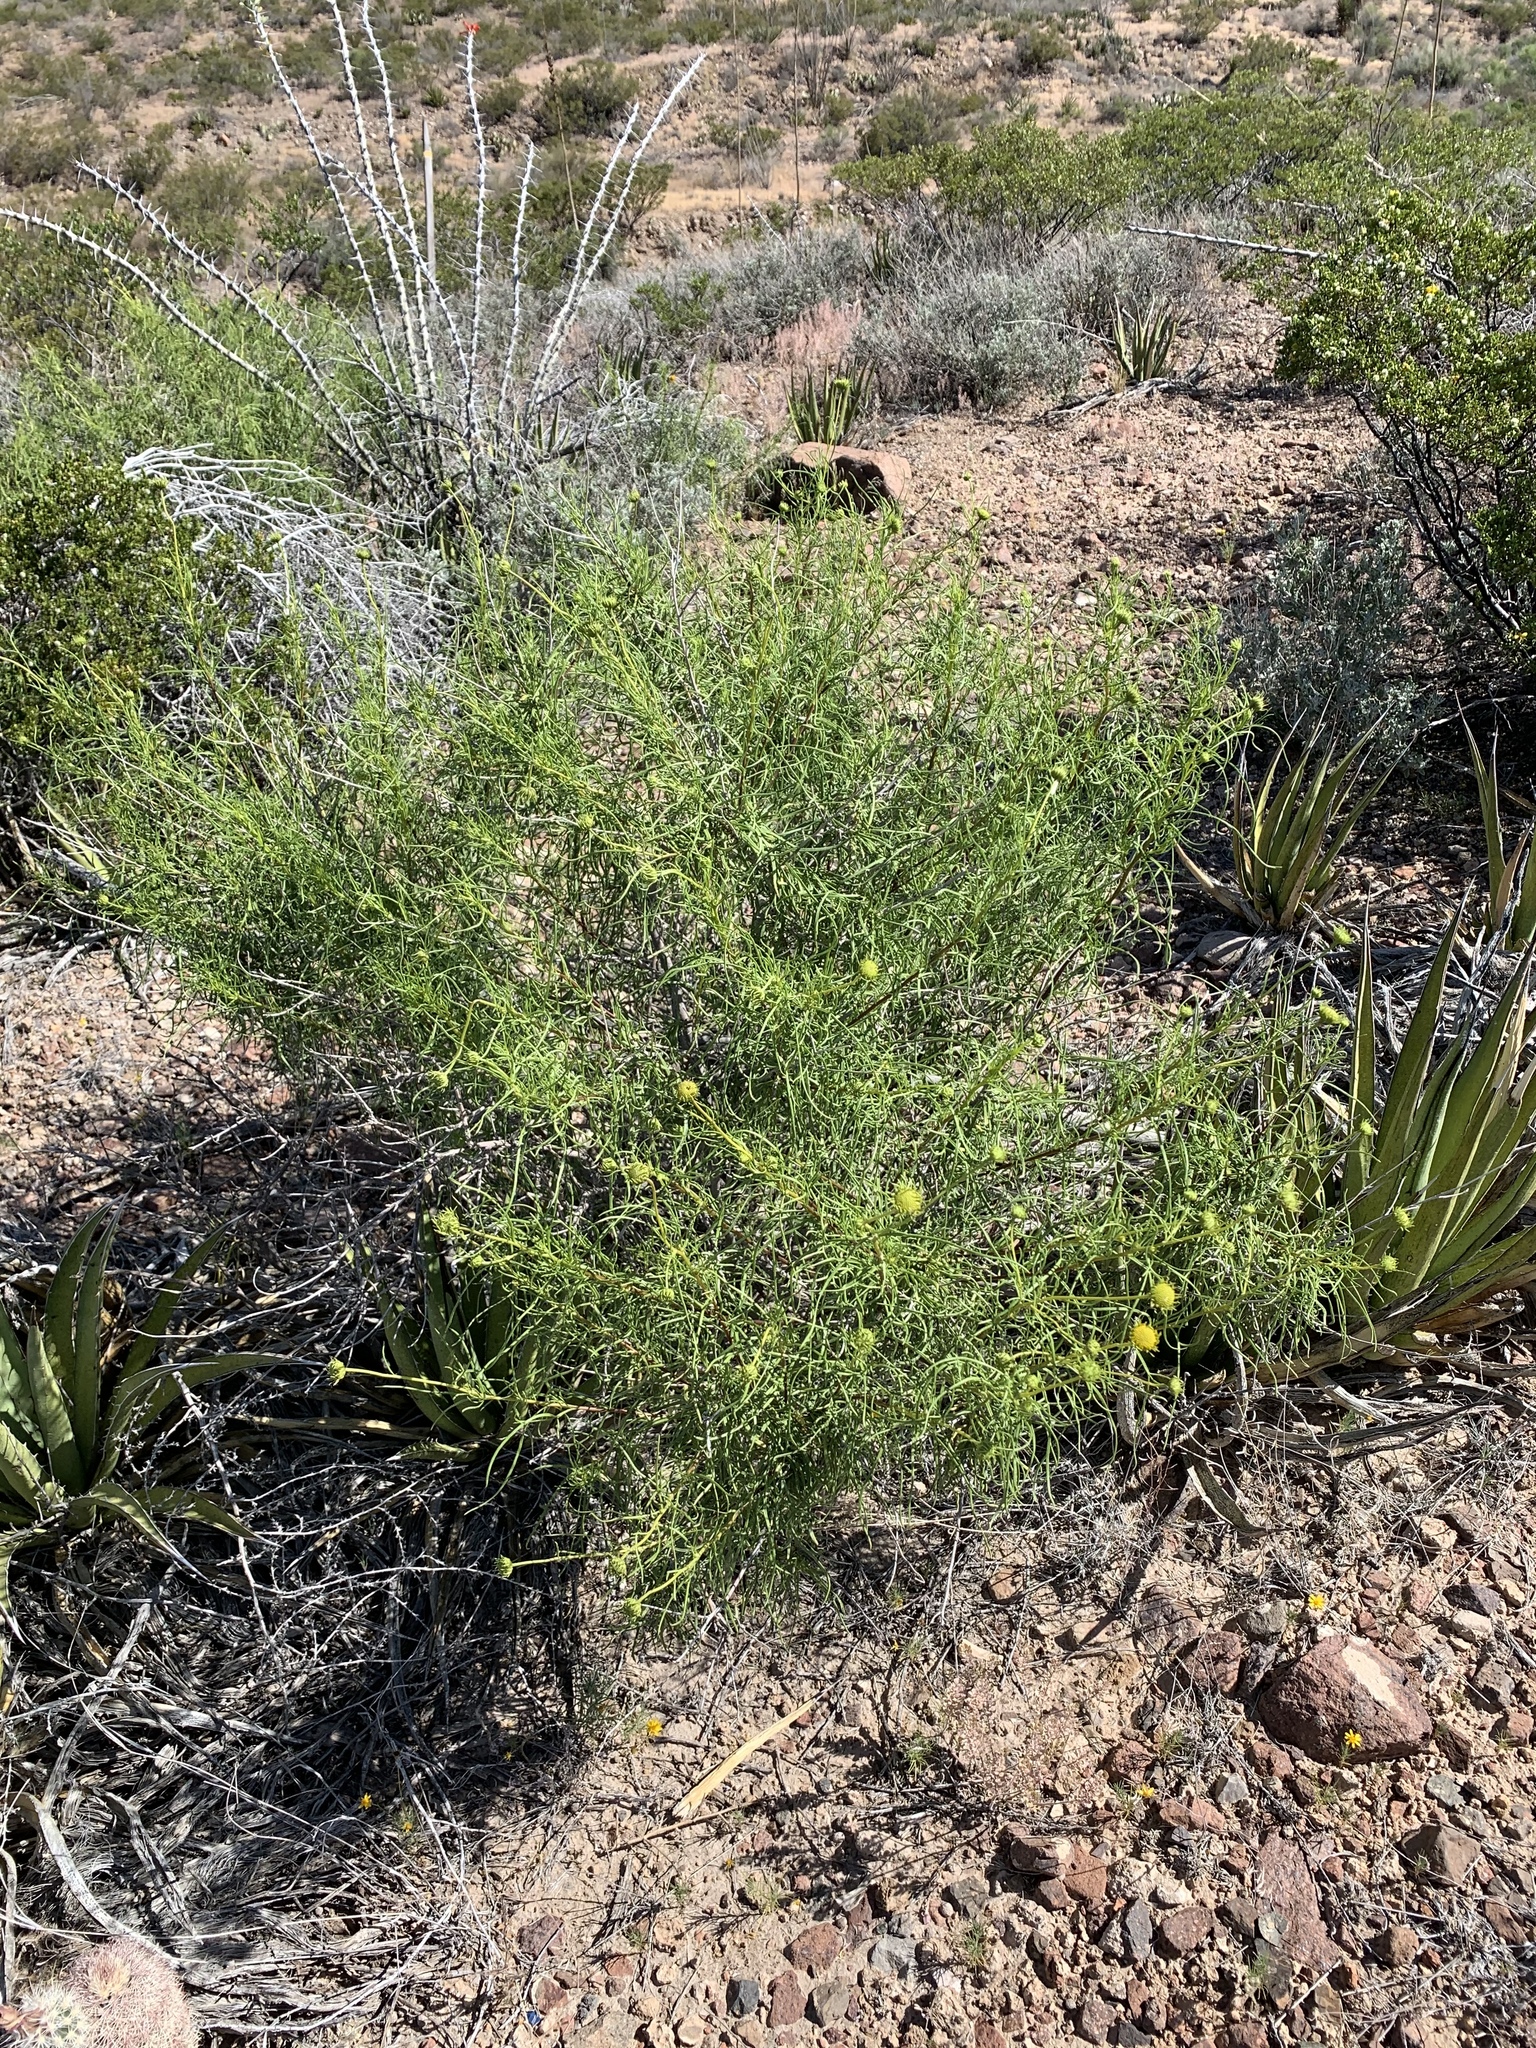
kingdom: Plantae
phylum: Tracheophyta
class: Magnoliopsida
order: Asterales
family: Asteraceae
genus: Sidneya
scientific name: Sidneya tenuifolia
